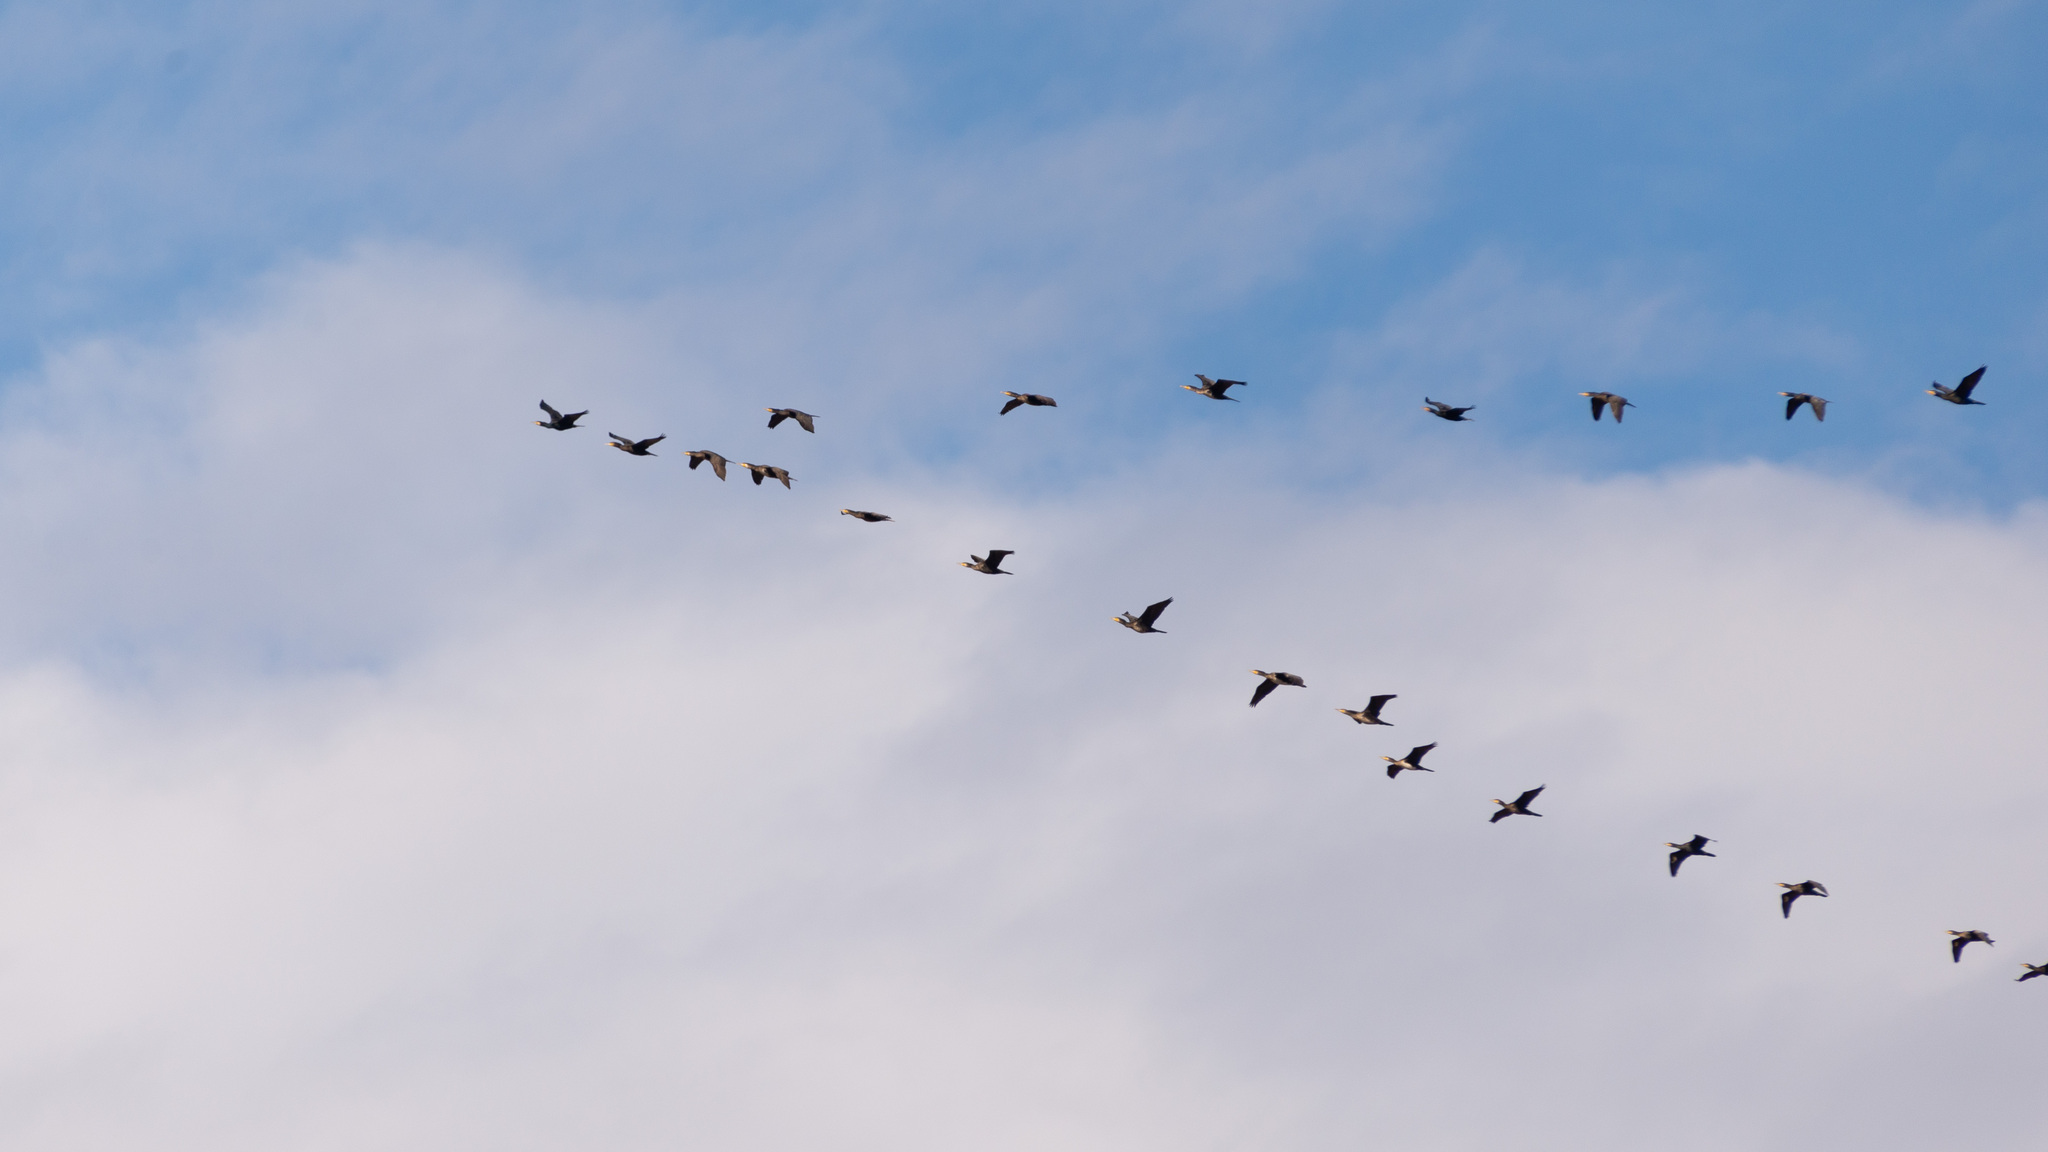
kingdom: Animalia
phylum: Chordata
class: Aves
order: Suliformes
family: Phalacrocoracidae
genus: Phalacrocorax
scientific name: Phalacrocorax carbo
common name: Great cormorant
